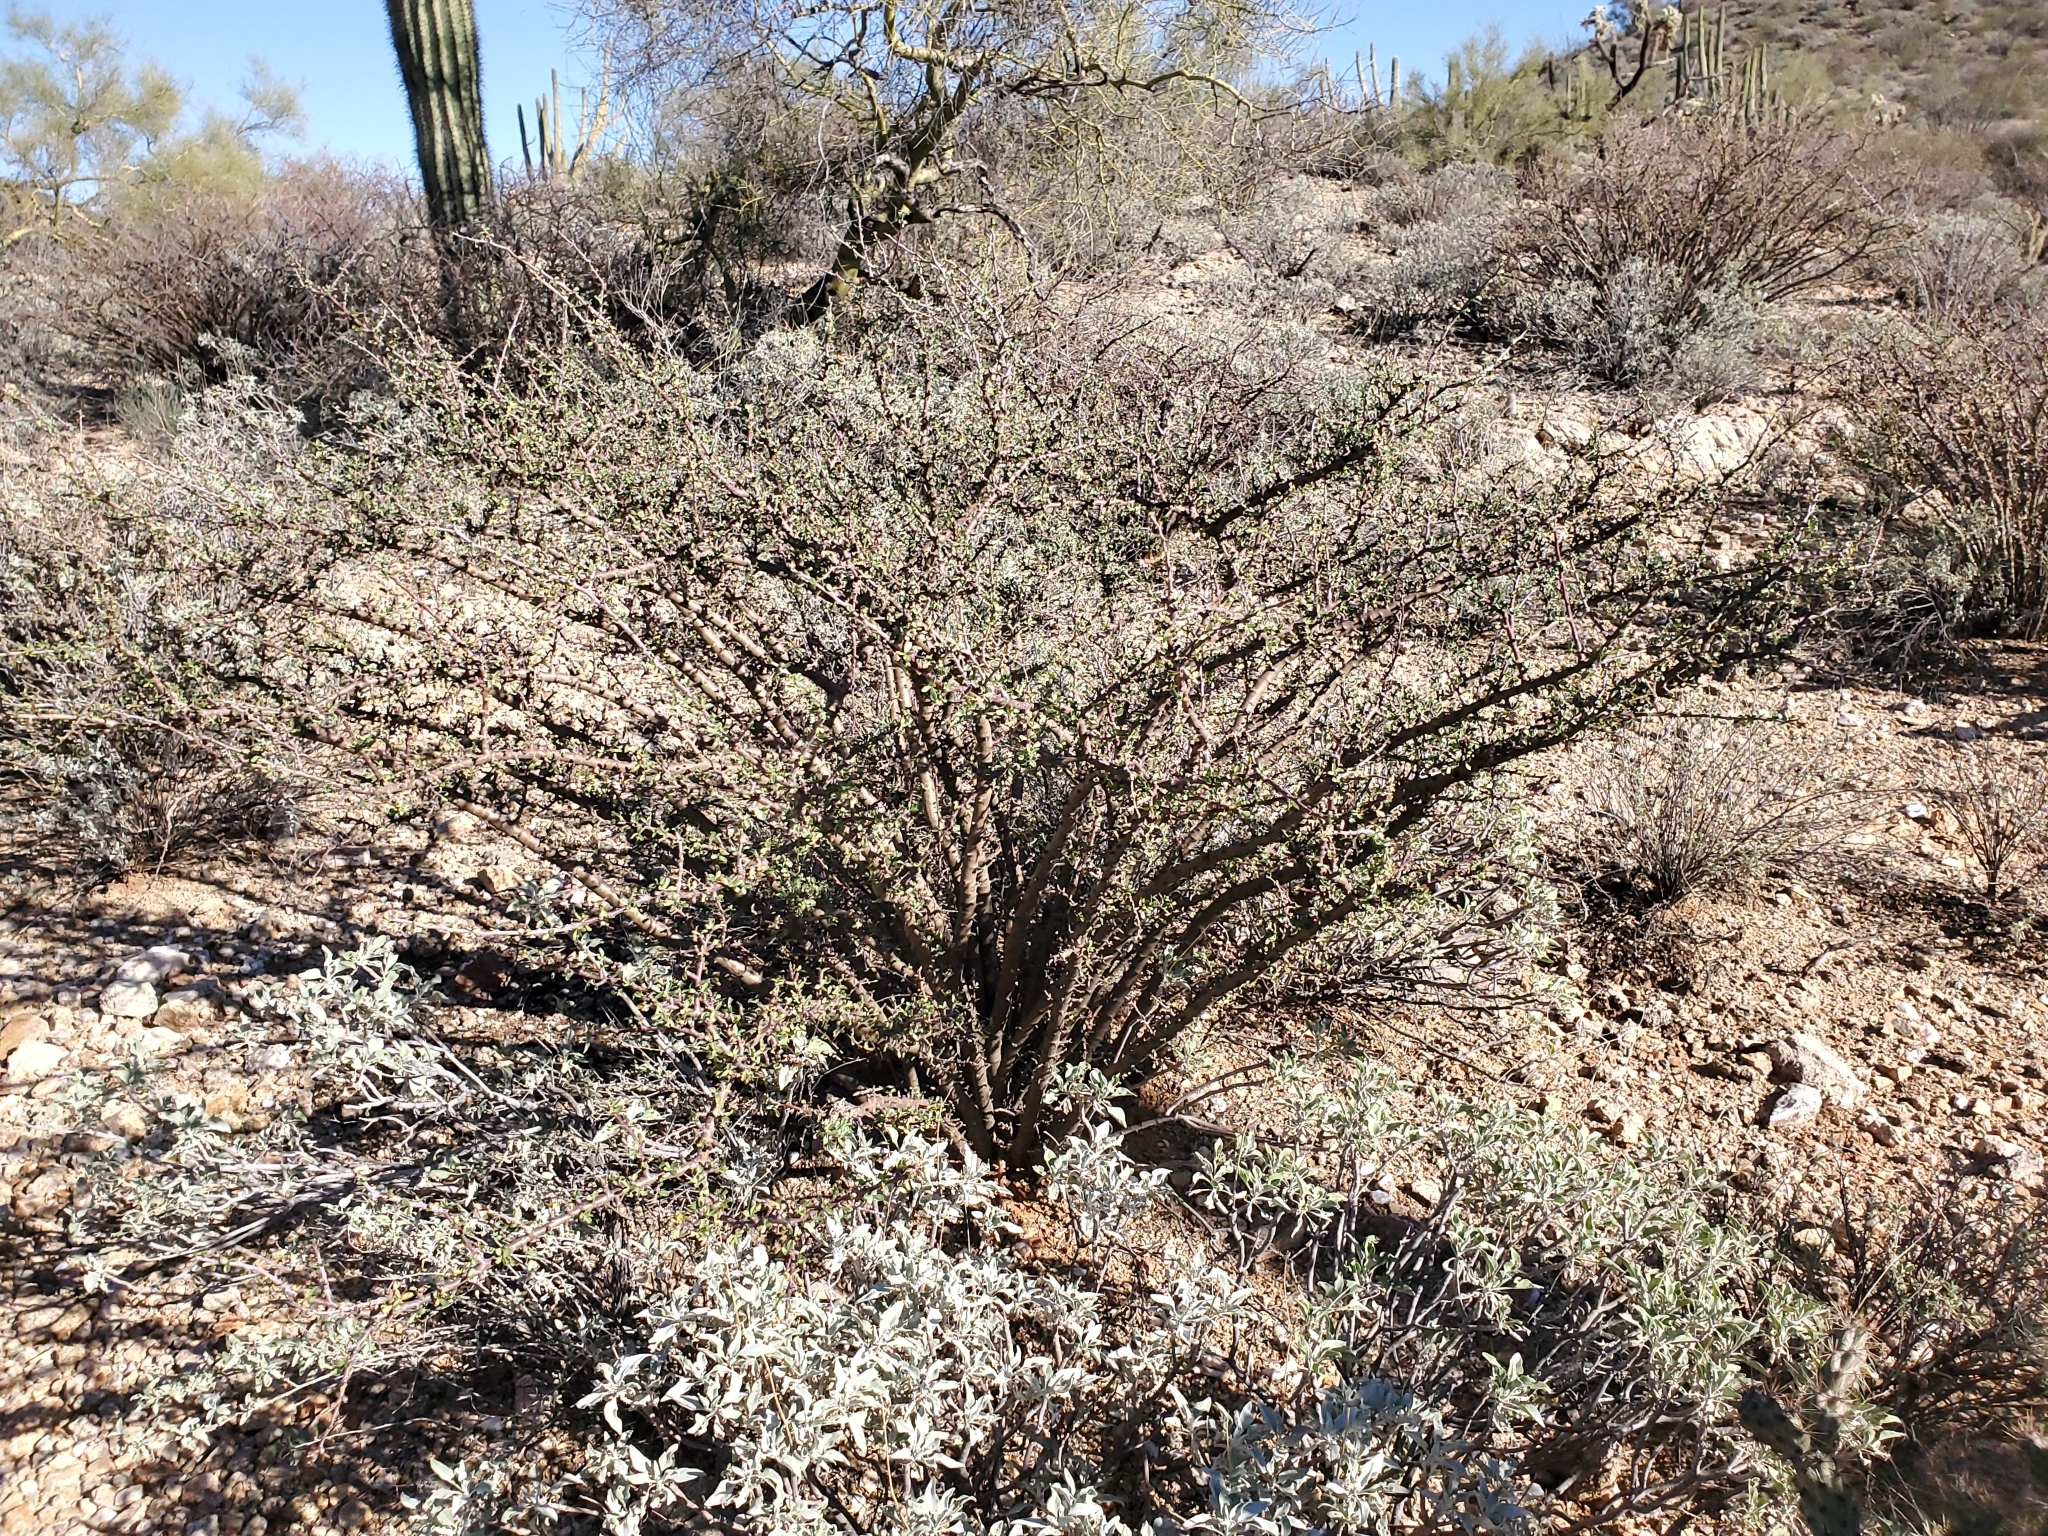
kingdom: Plantae
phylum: Tracheophyta
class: Magnoliopsida
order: Malpighiales
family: Euphorbiaceae
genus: Jatropha
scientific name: Jatropha cuneata
